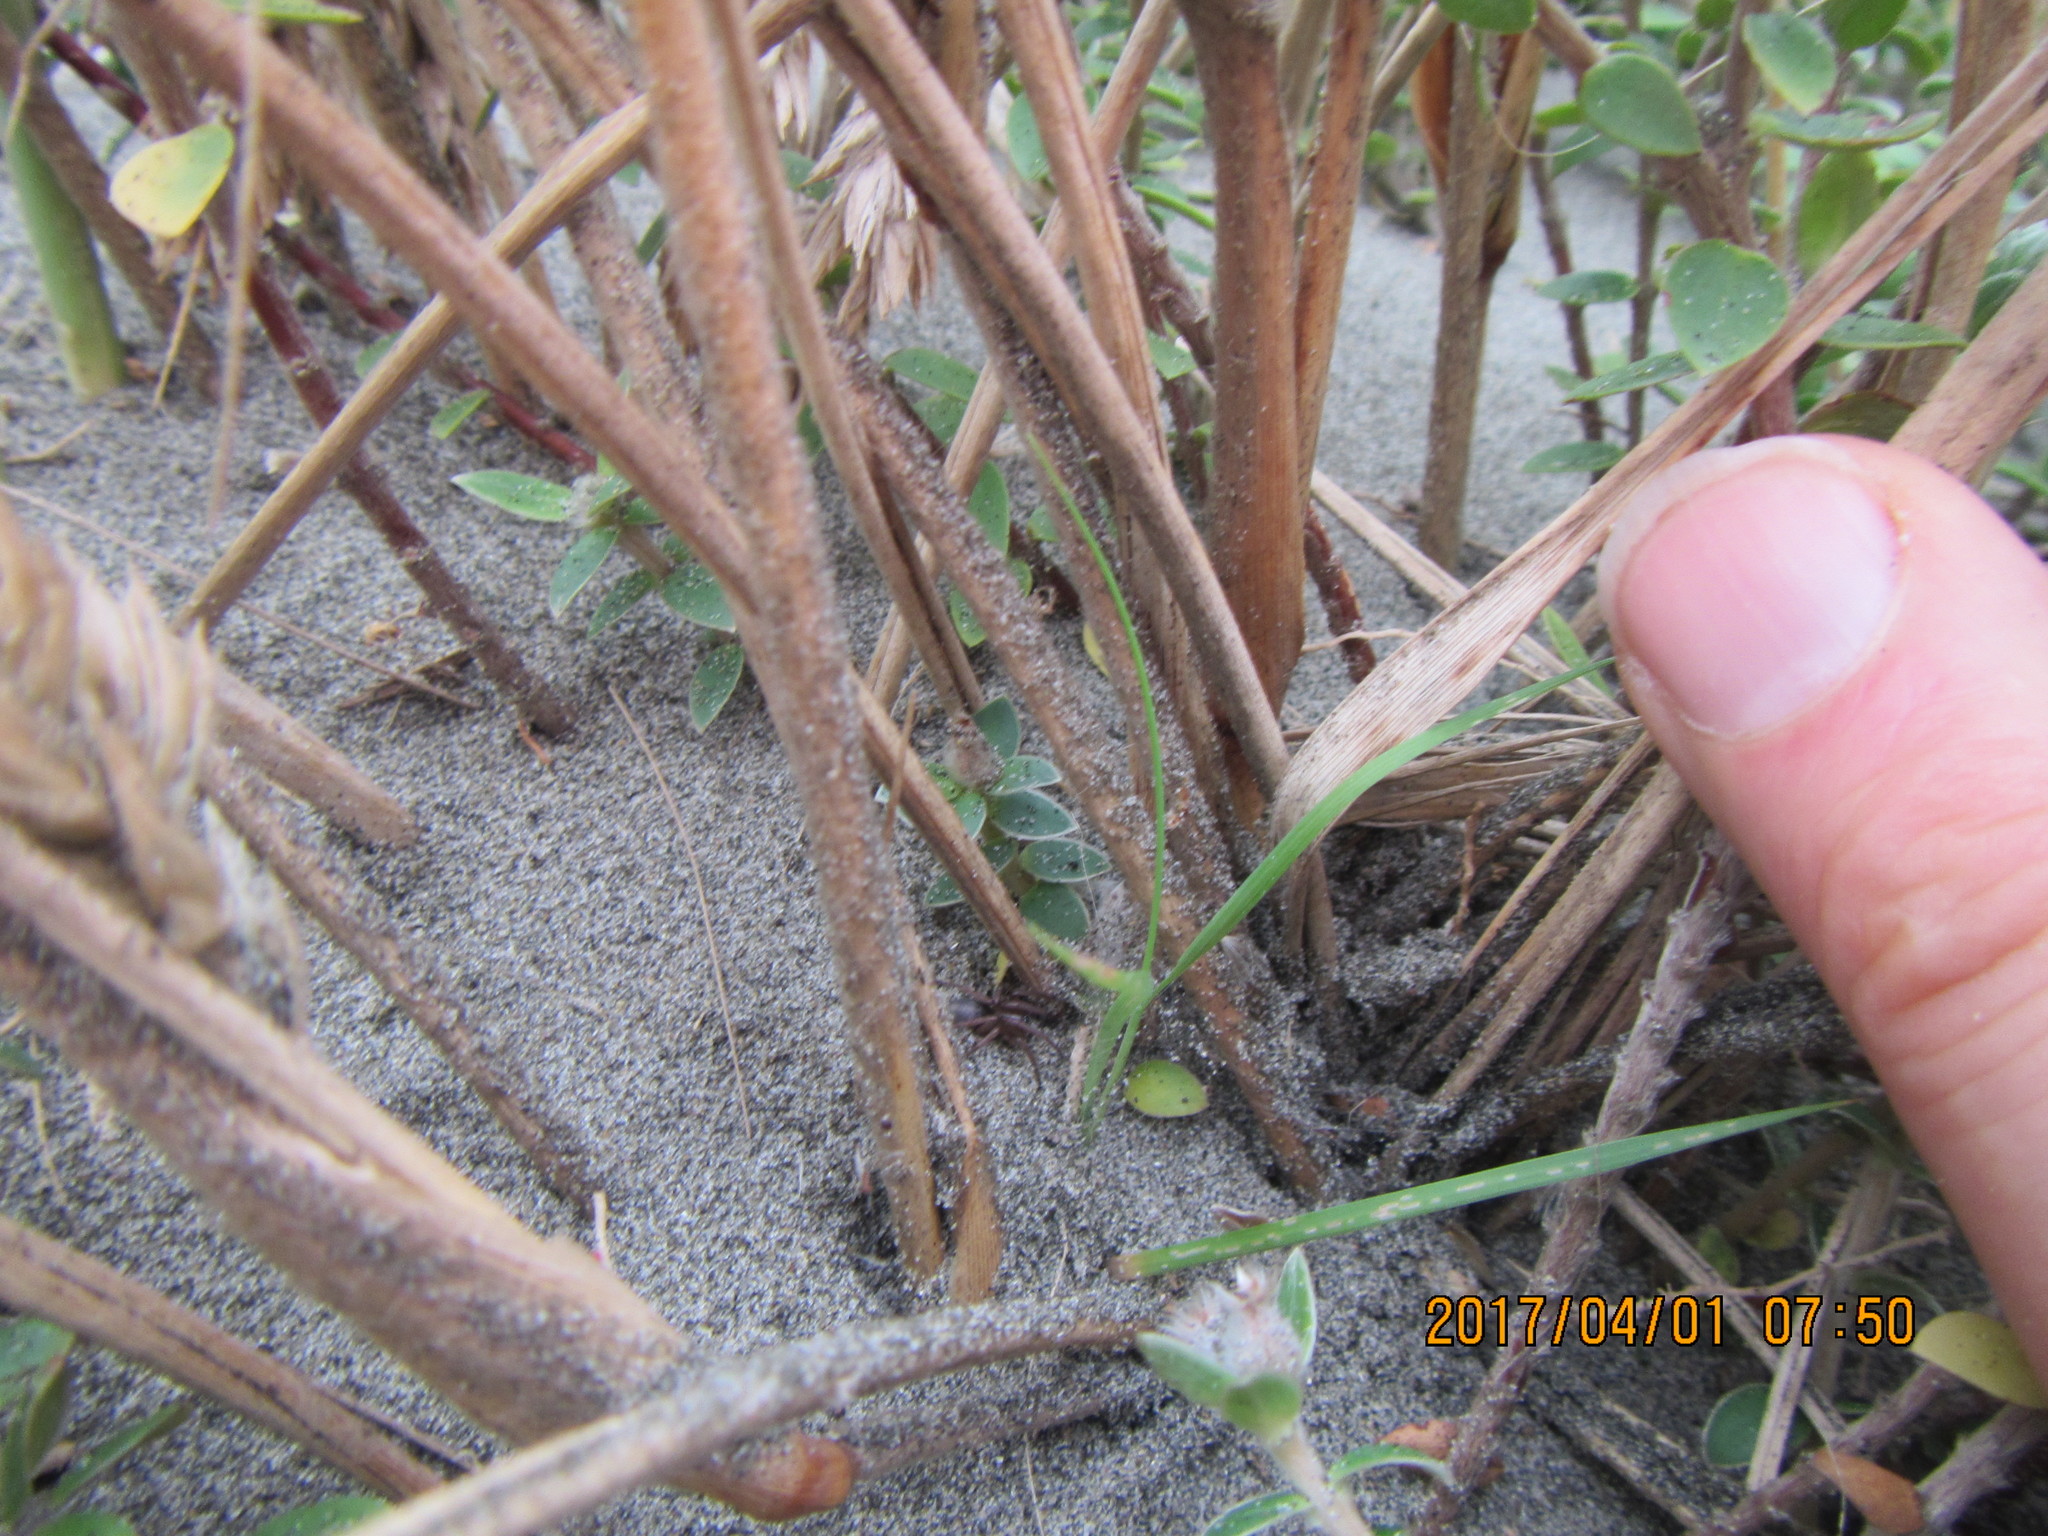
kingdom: Animalia
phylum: Arthropoda
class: Arachnida
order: Araneae
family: Gnaphosidae
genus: Anzacia
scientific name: Anzacia gemmea
